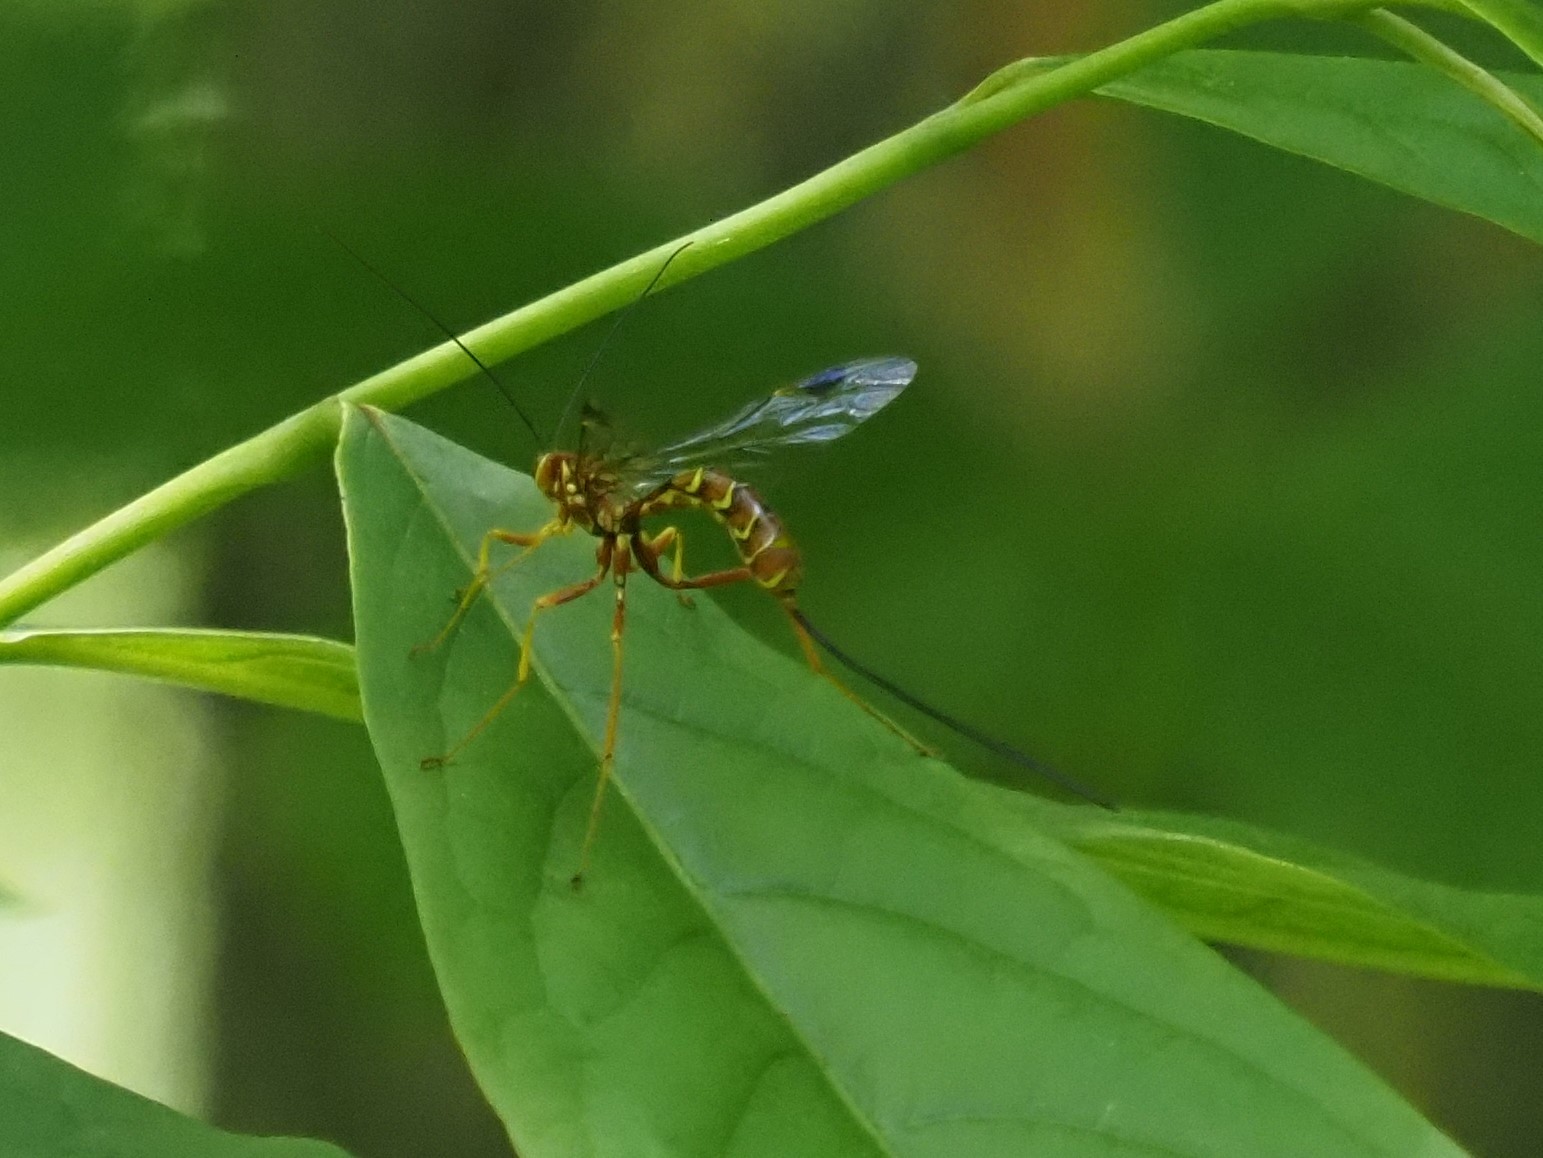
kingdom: Animalia
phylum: Arthropoda
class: Insecta
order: Hymenoptera
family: Ichneumonidae
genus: Megarhyssa
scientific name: Megarhyssa greenei
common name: Greene's giant ichneumonid wasp
